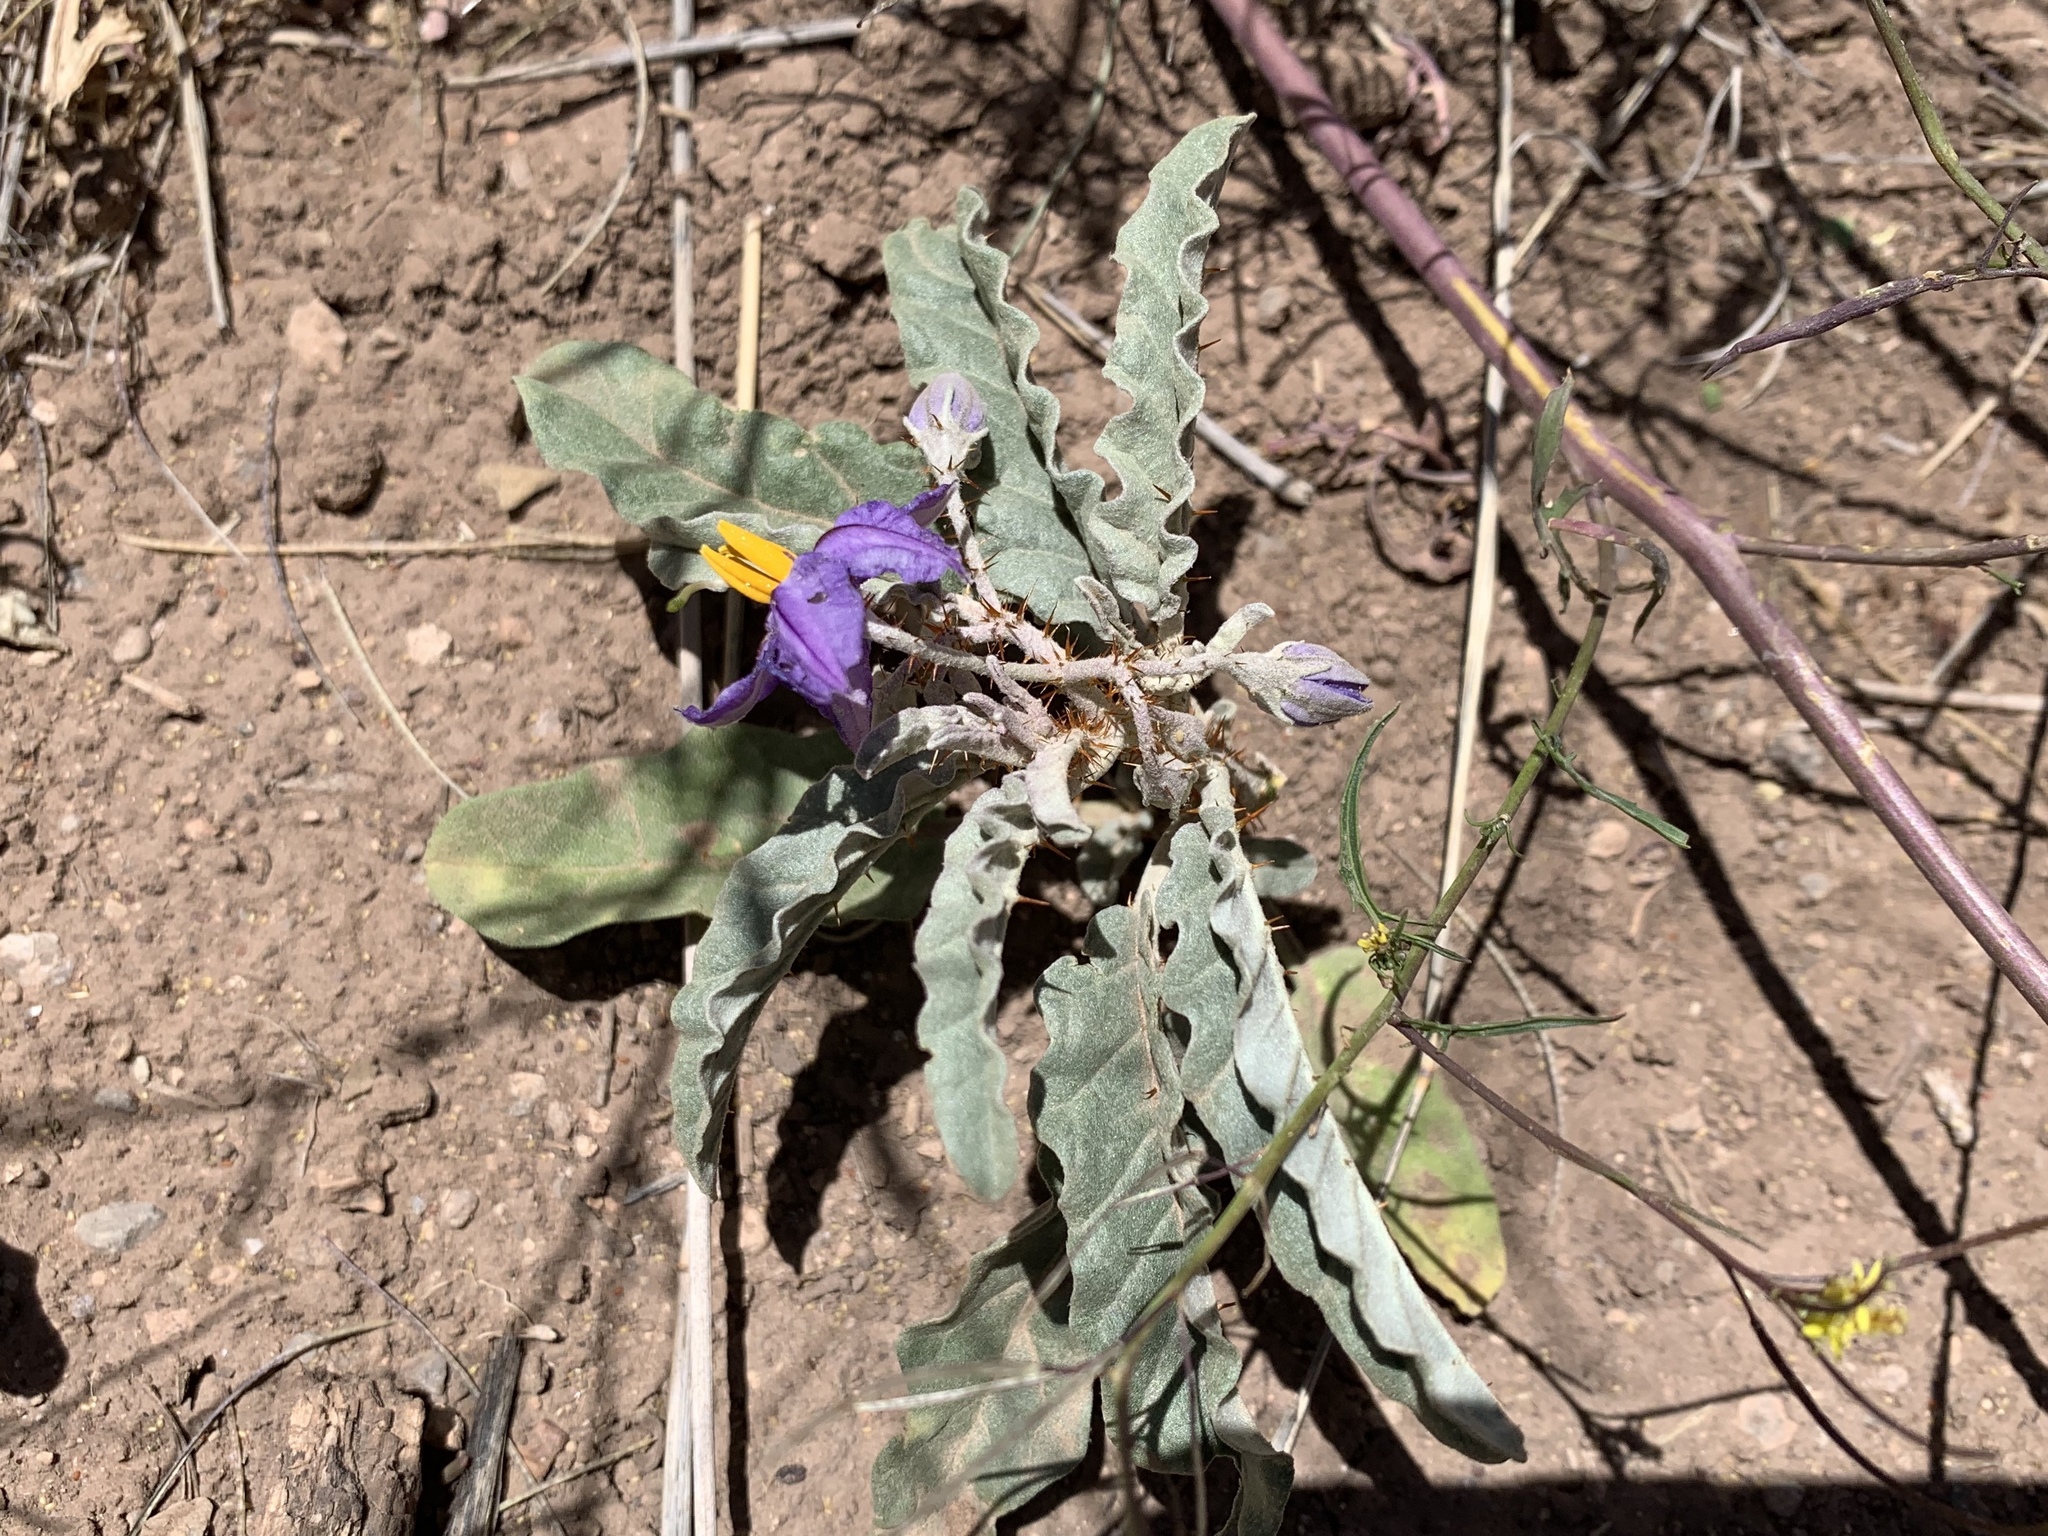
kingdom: Plantae
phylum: Tracheophyta
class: Magnoliopsida
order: Solanales
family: Solanaceae
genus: Solanum
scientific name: Solanum elaeagnifolium
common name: Silverleaf nightshade
